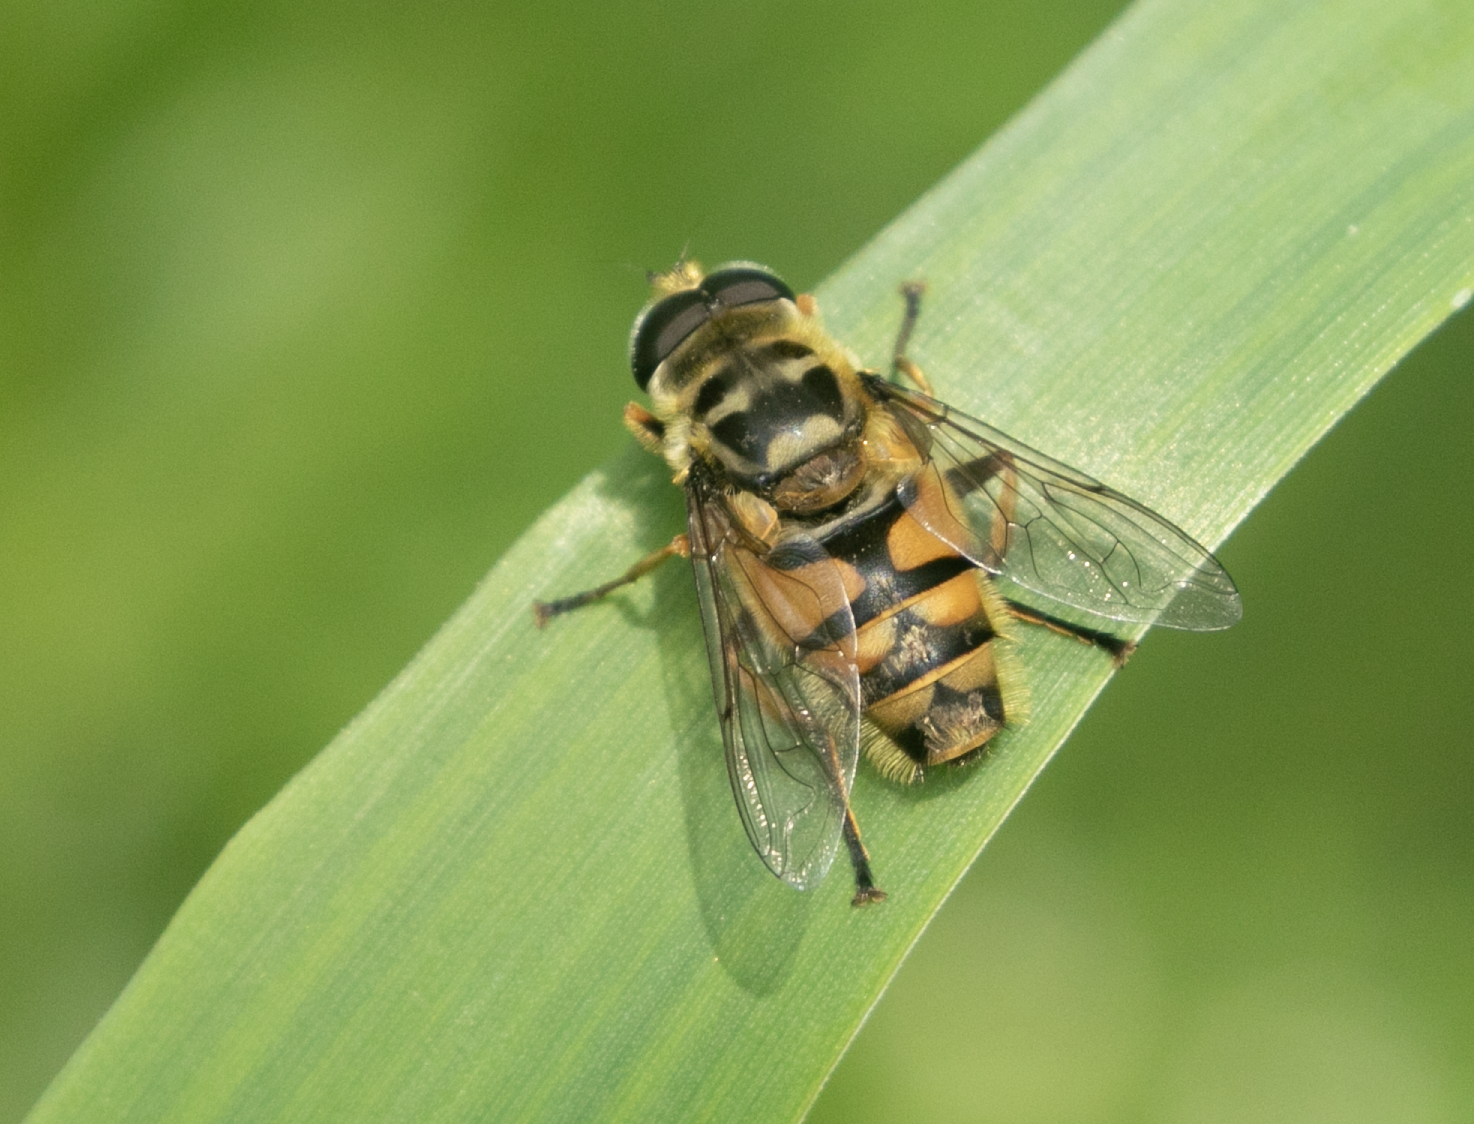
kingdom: Animalia
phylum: Arthropoda
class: Insecta
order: Diptera
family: Syrphidae
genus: Myathropa
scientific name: Myathropa florea
